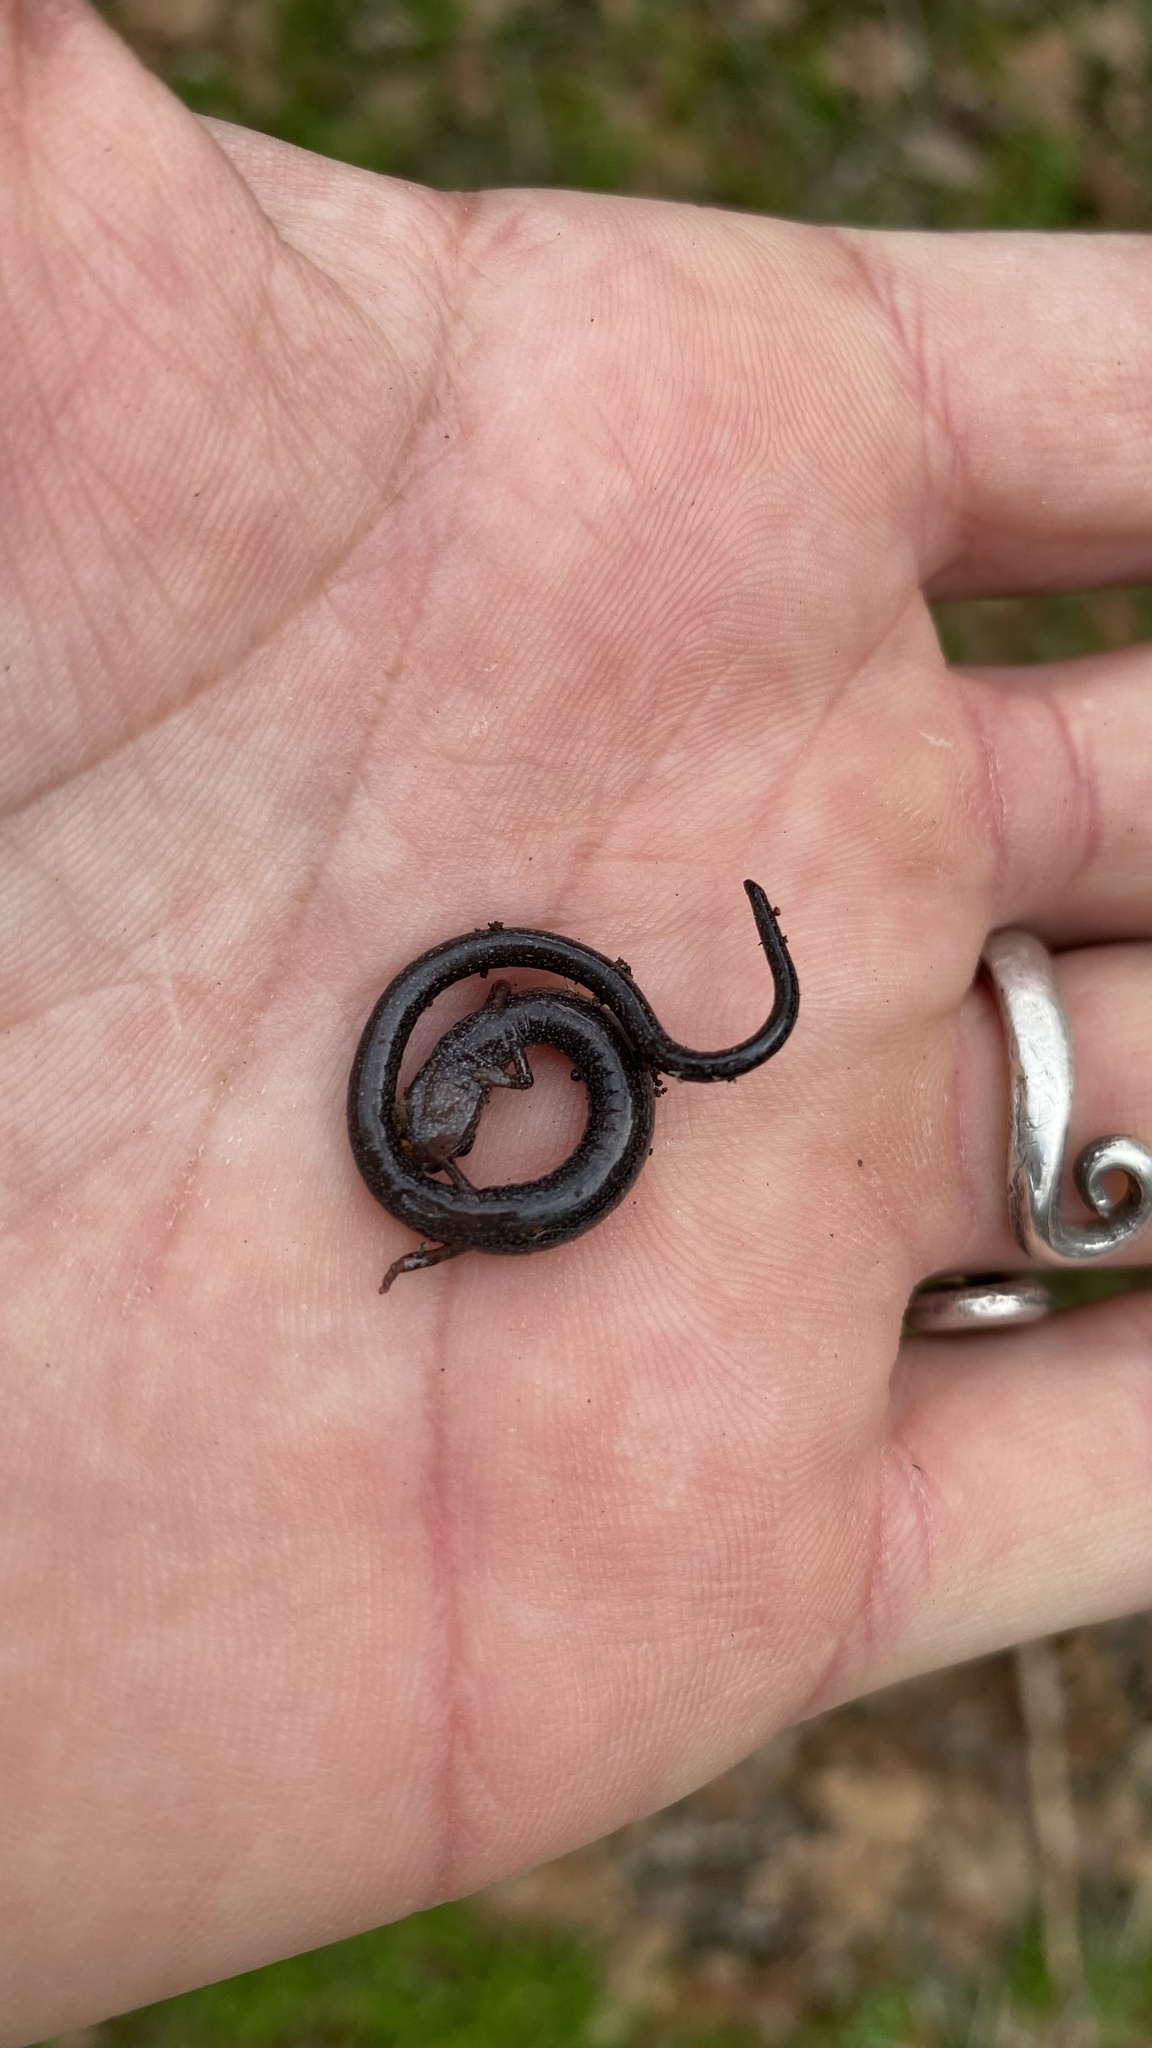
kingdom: Animalia
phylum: Chordata
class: Amphibia
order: Caudata
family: Plethodontidae
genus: Batrachoseps
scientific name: Batrachoseps gregarius
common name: Gregarious slender salamander
